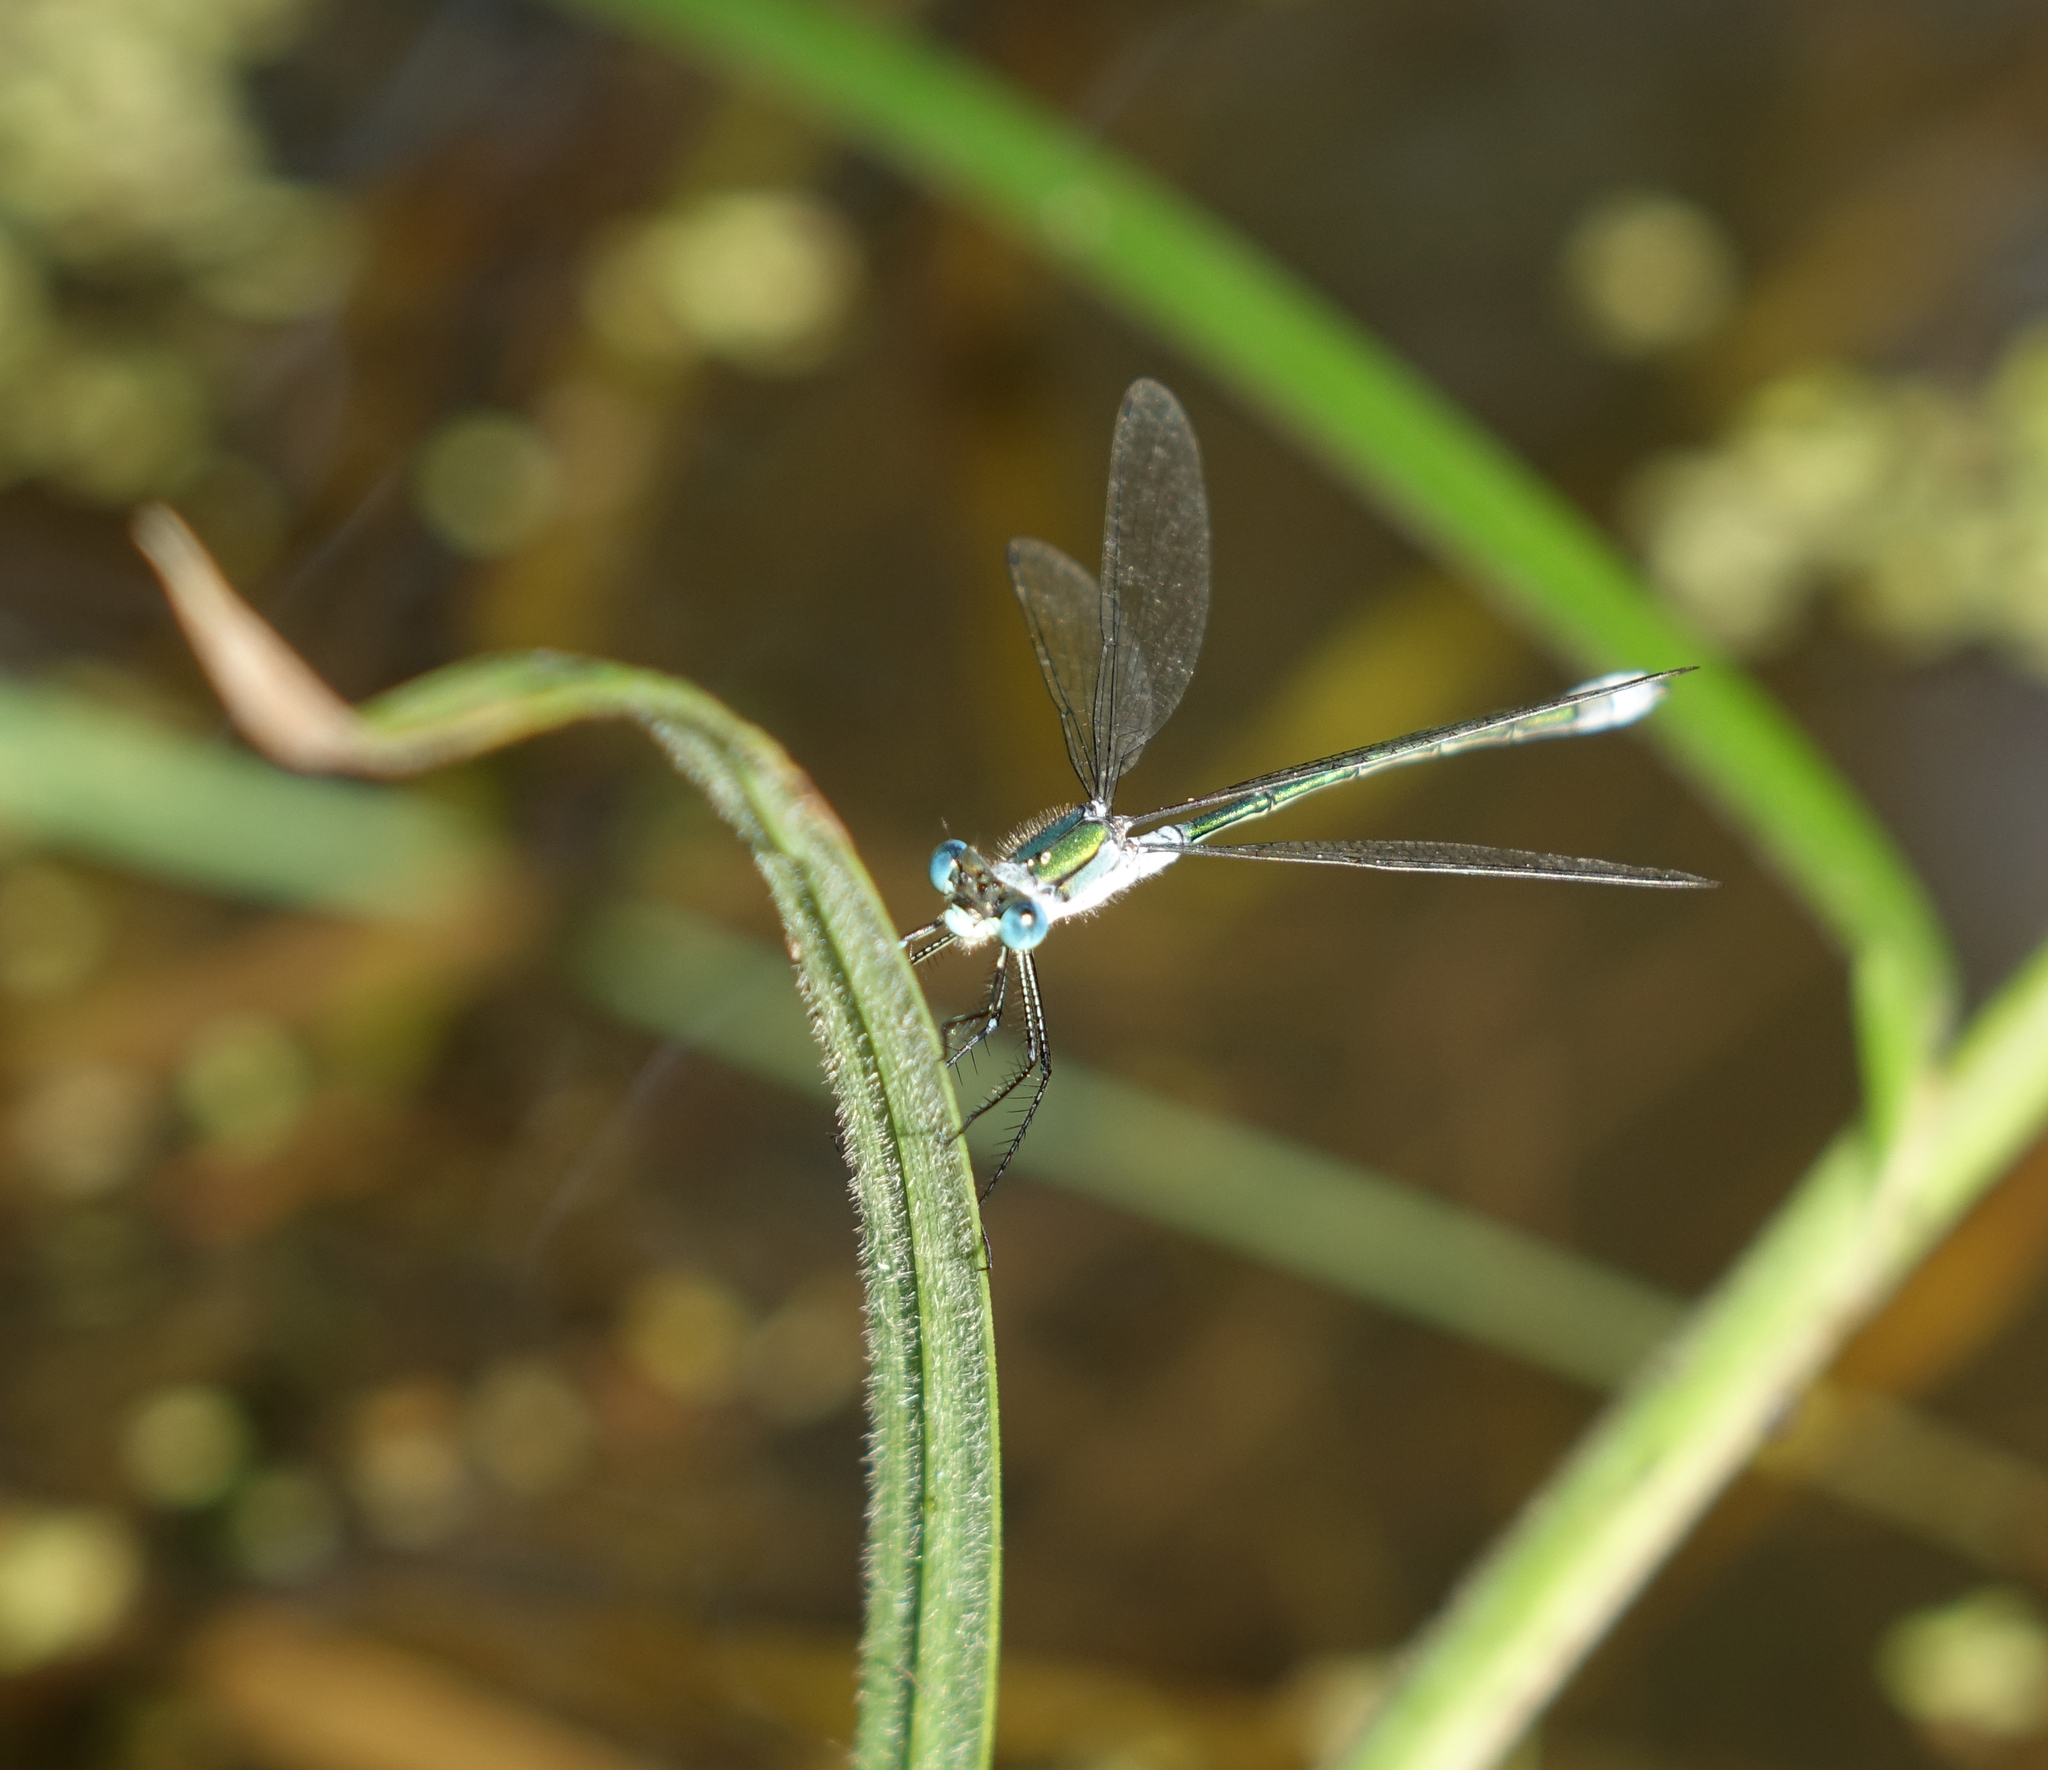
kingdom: Animalia
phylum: Arthropoda
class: Insecta
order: Odonata
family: Lestidae
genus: Lestes
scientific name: Lestes sponsa
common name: Common spreadwing
